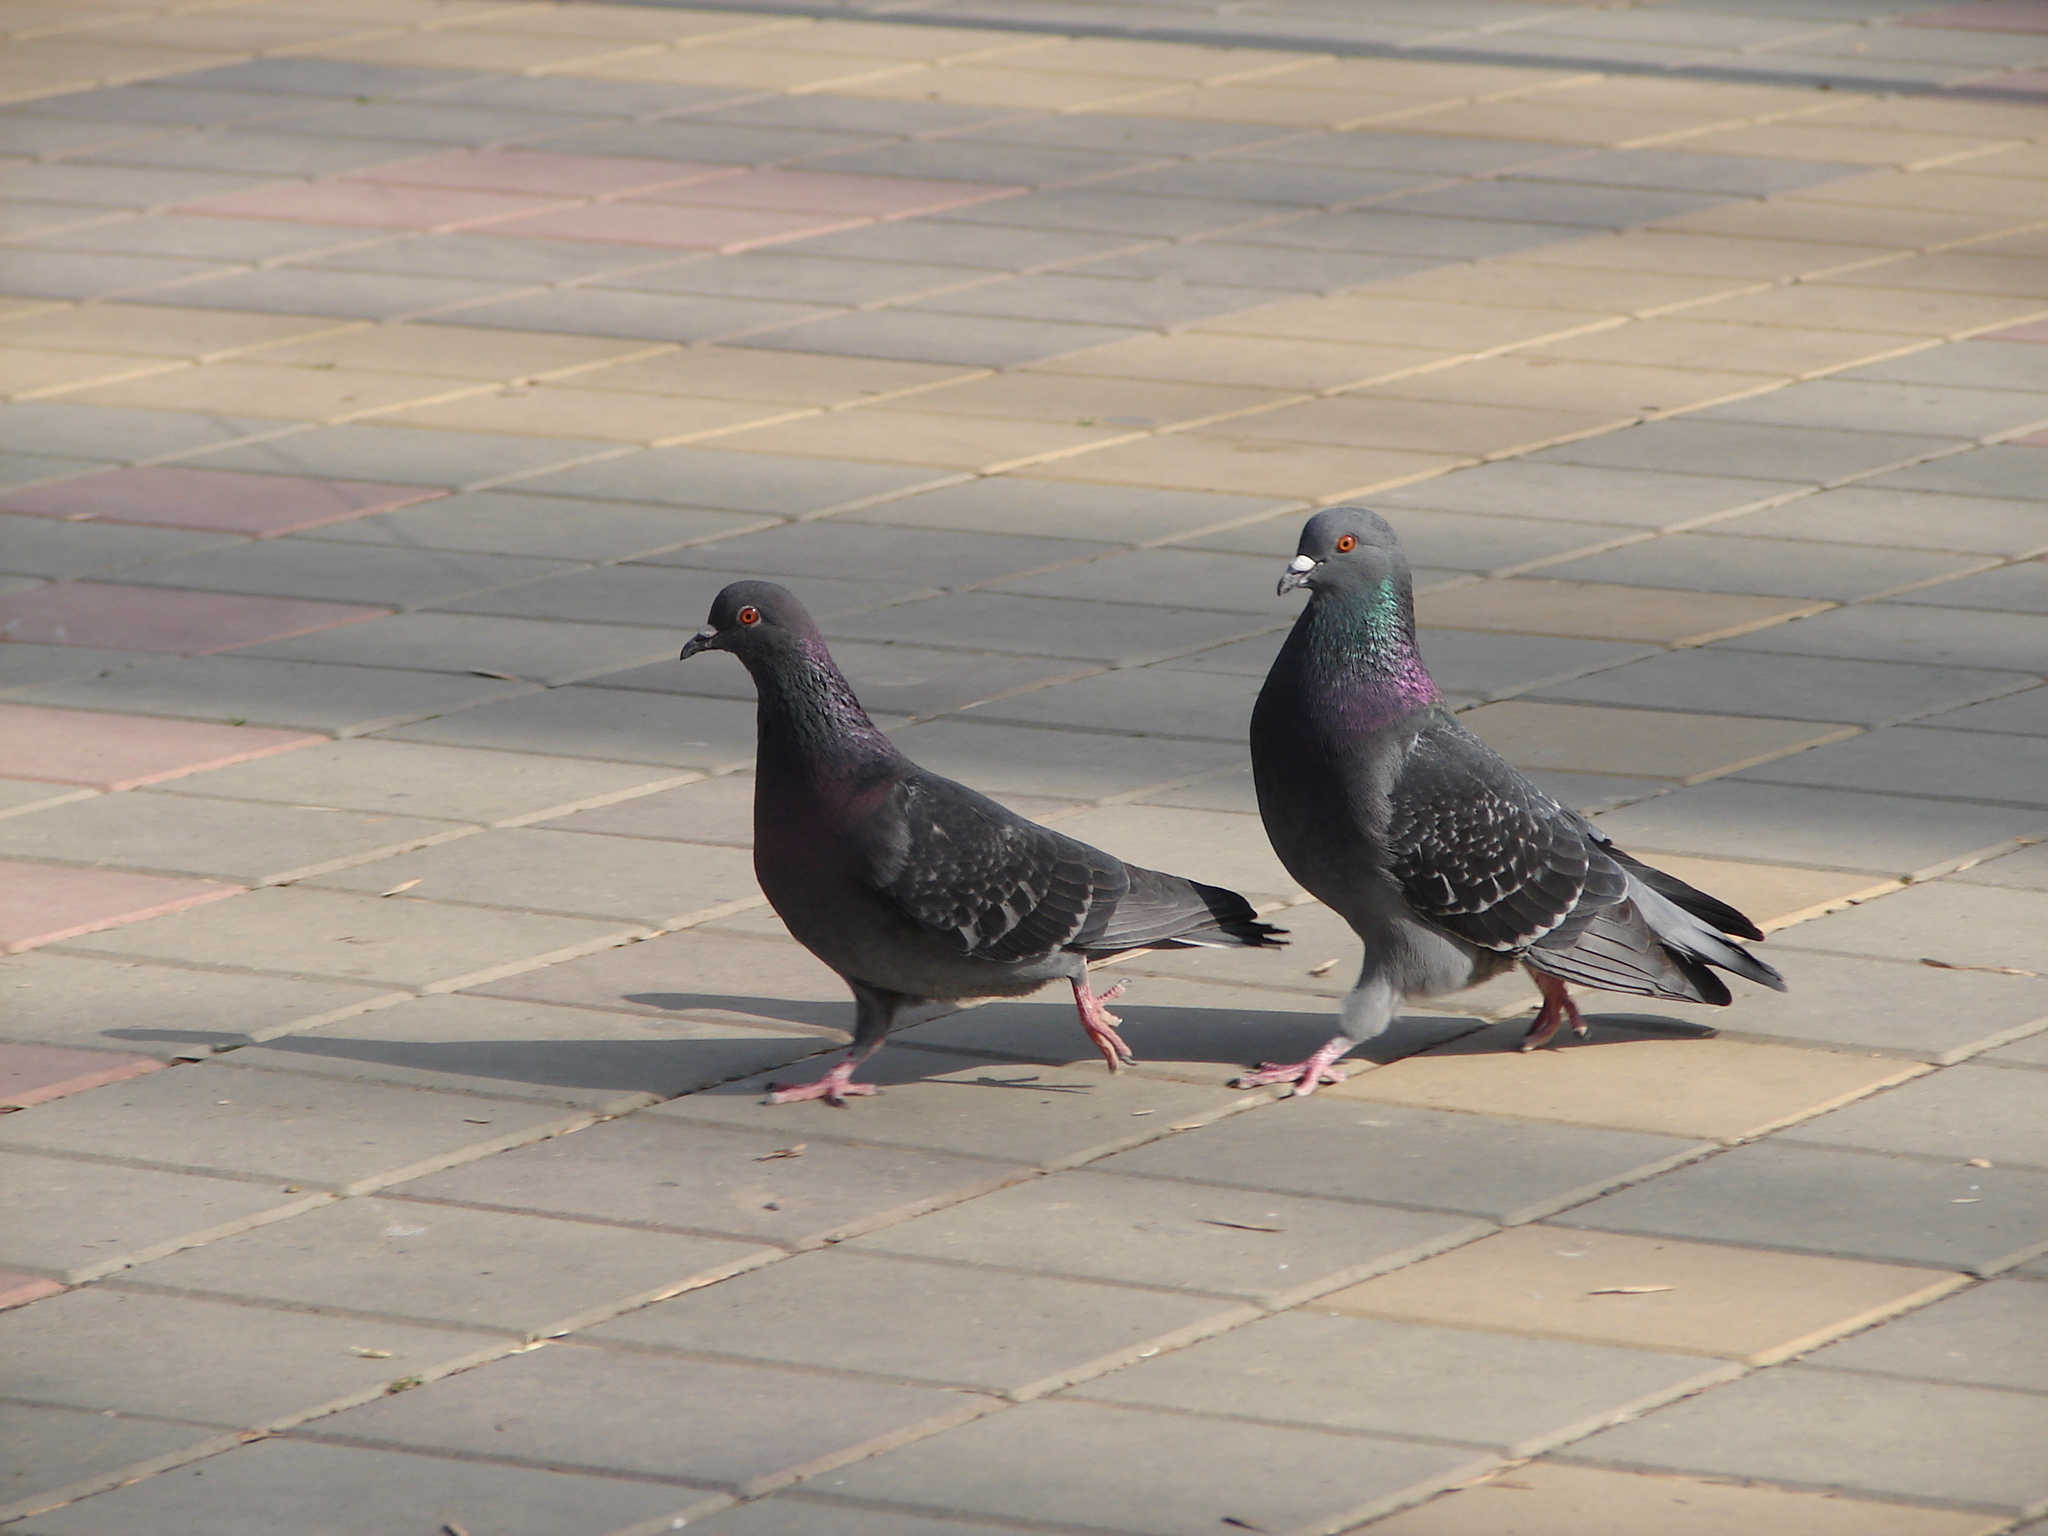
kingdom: Animalia
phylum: Chordata
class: Aves
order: Columbiformes
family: Columbidae
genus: Columba
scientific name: Columba livia
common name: Rock pigeon
